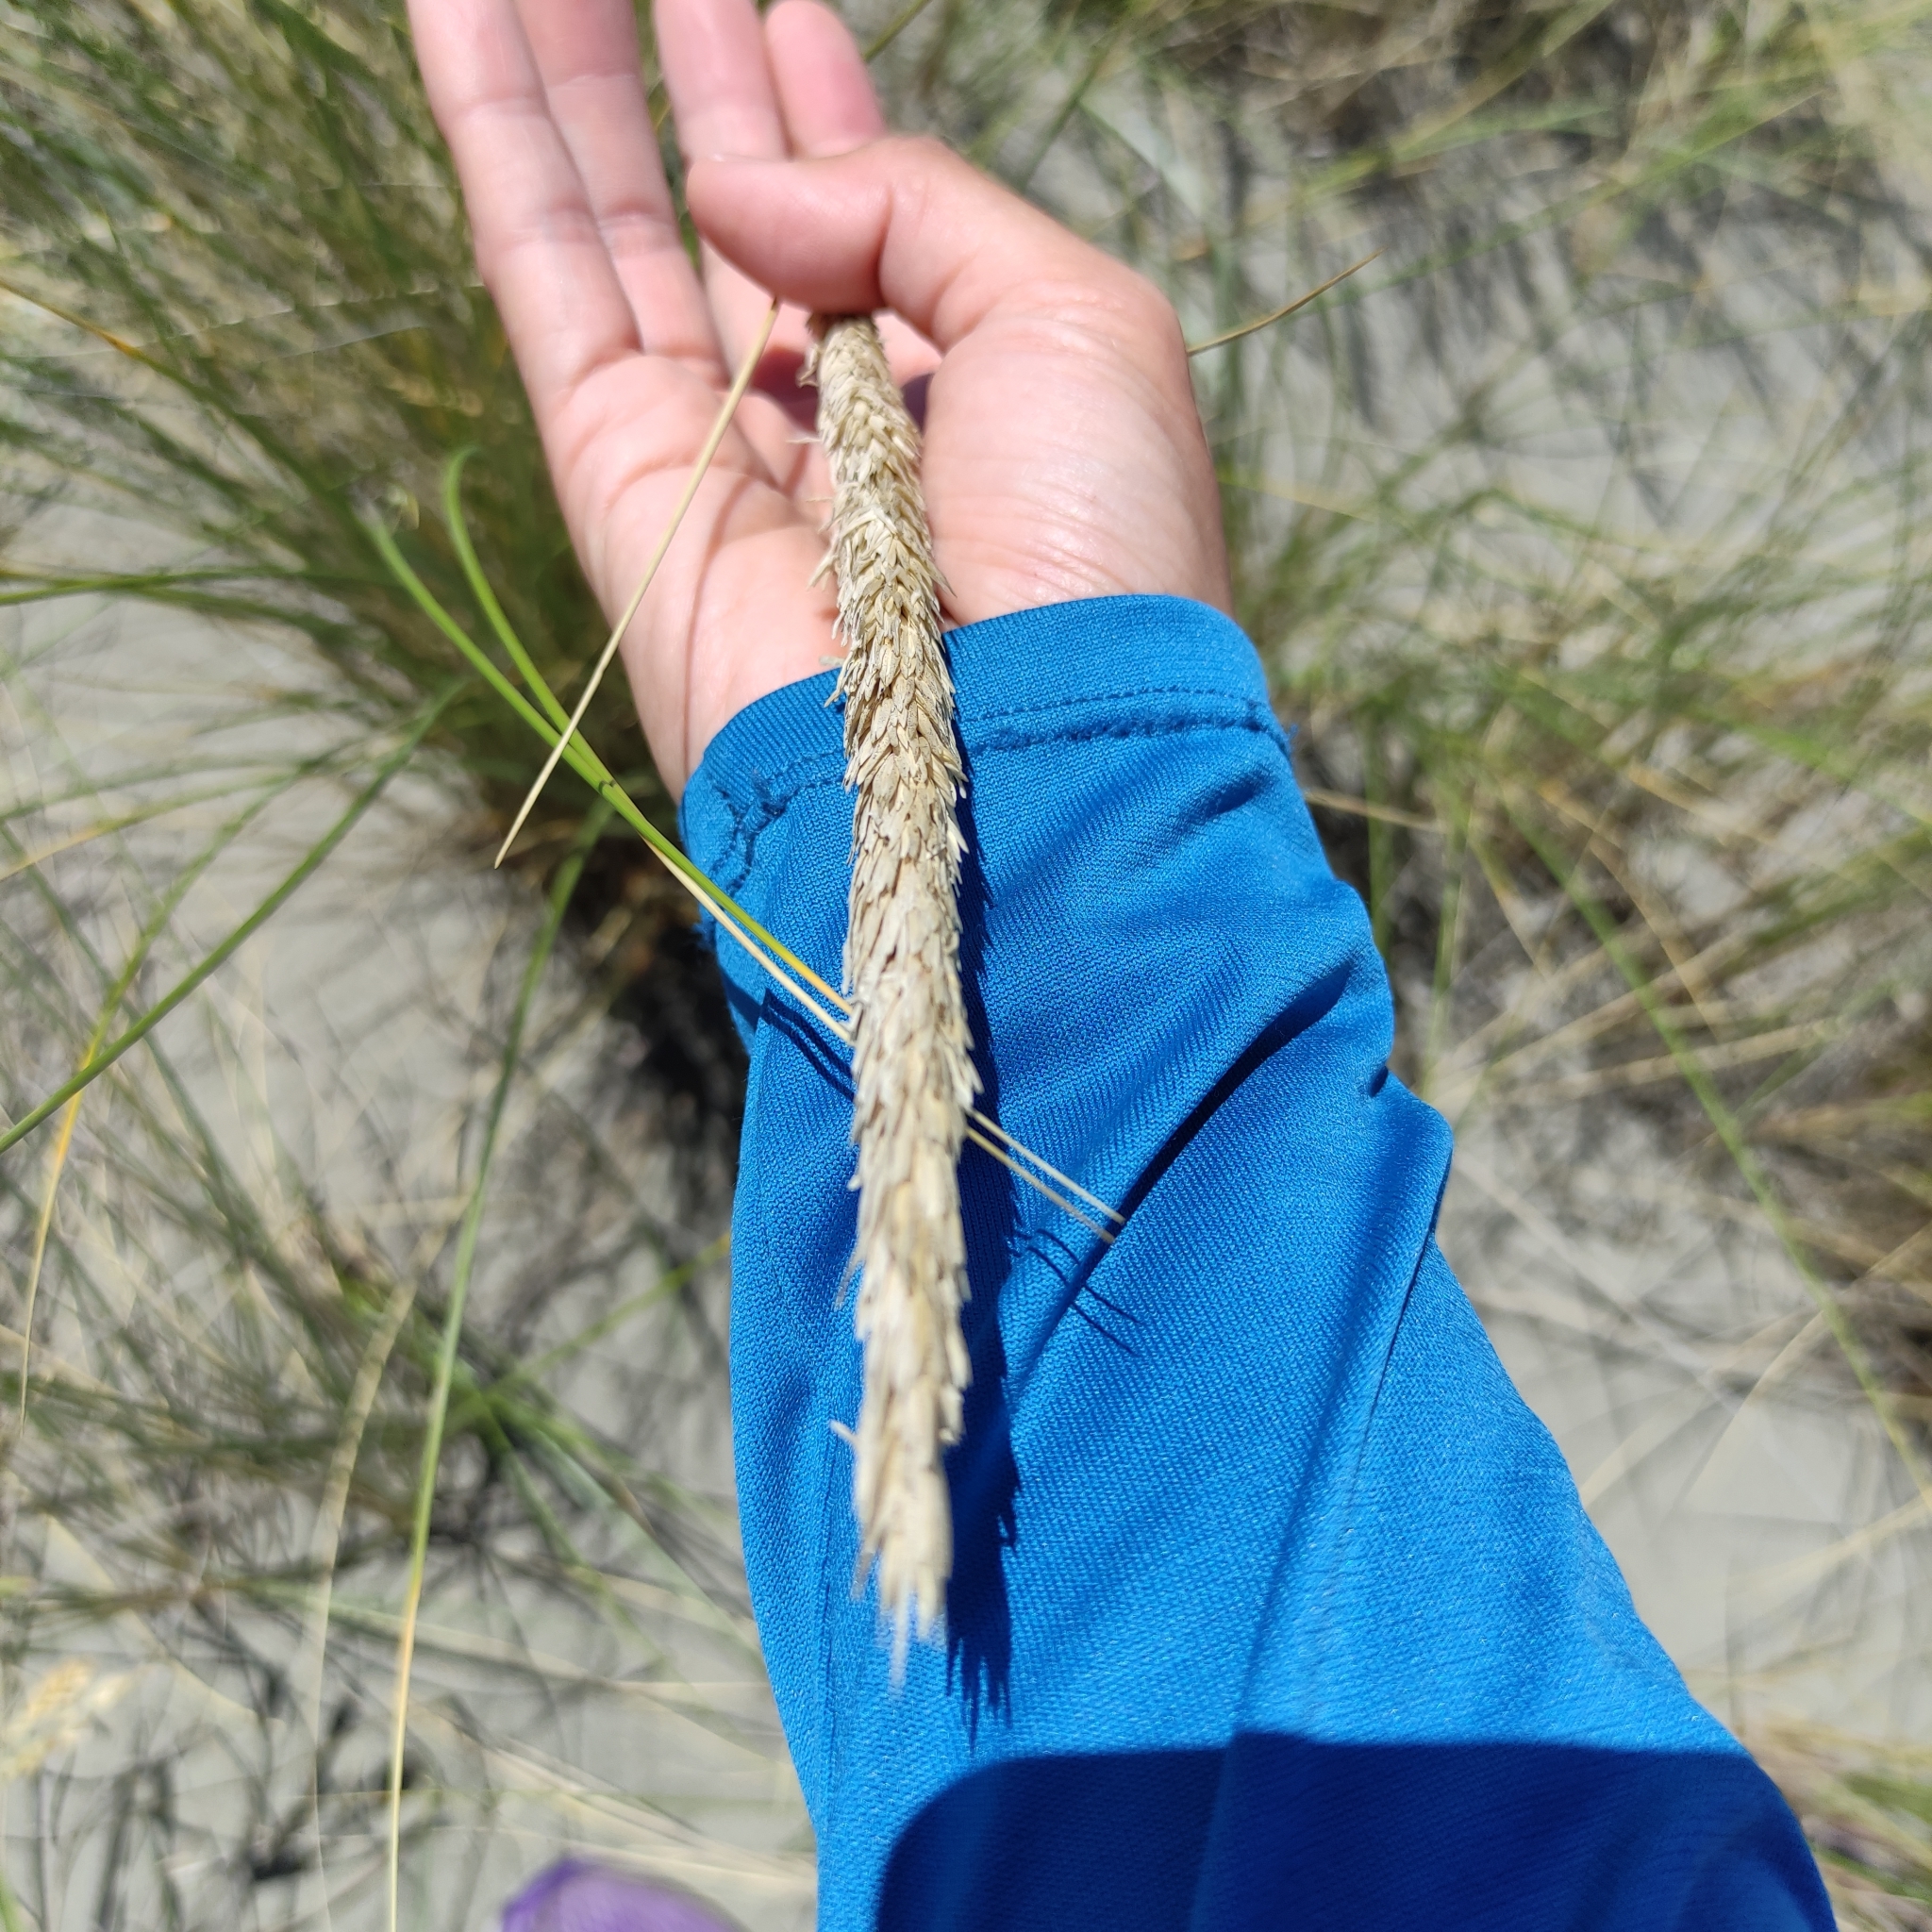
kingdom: Plantae
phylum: Tracheophyta
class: Liliopsida
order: Poales
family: Poaceae
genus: Calamagrostis
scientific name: Calamagrostis arenaria
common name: European beachgrass
